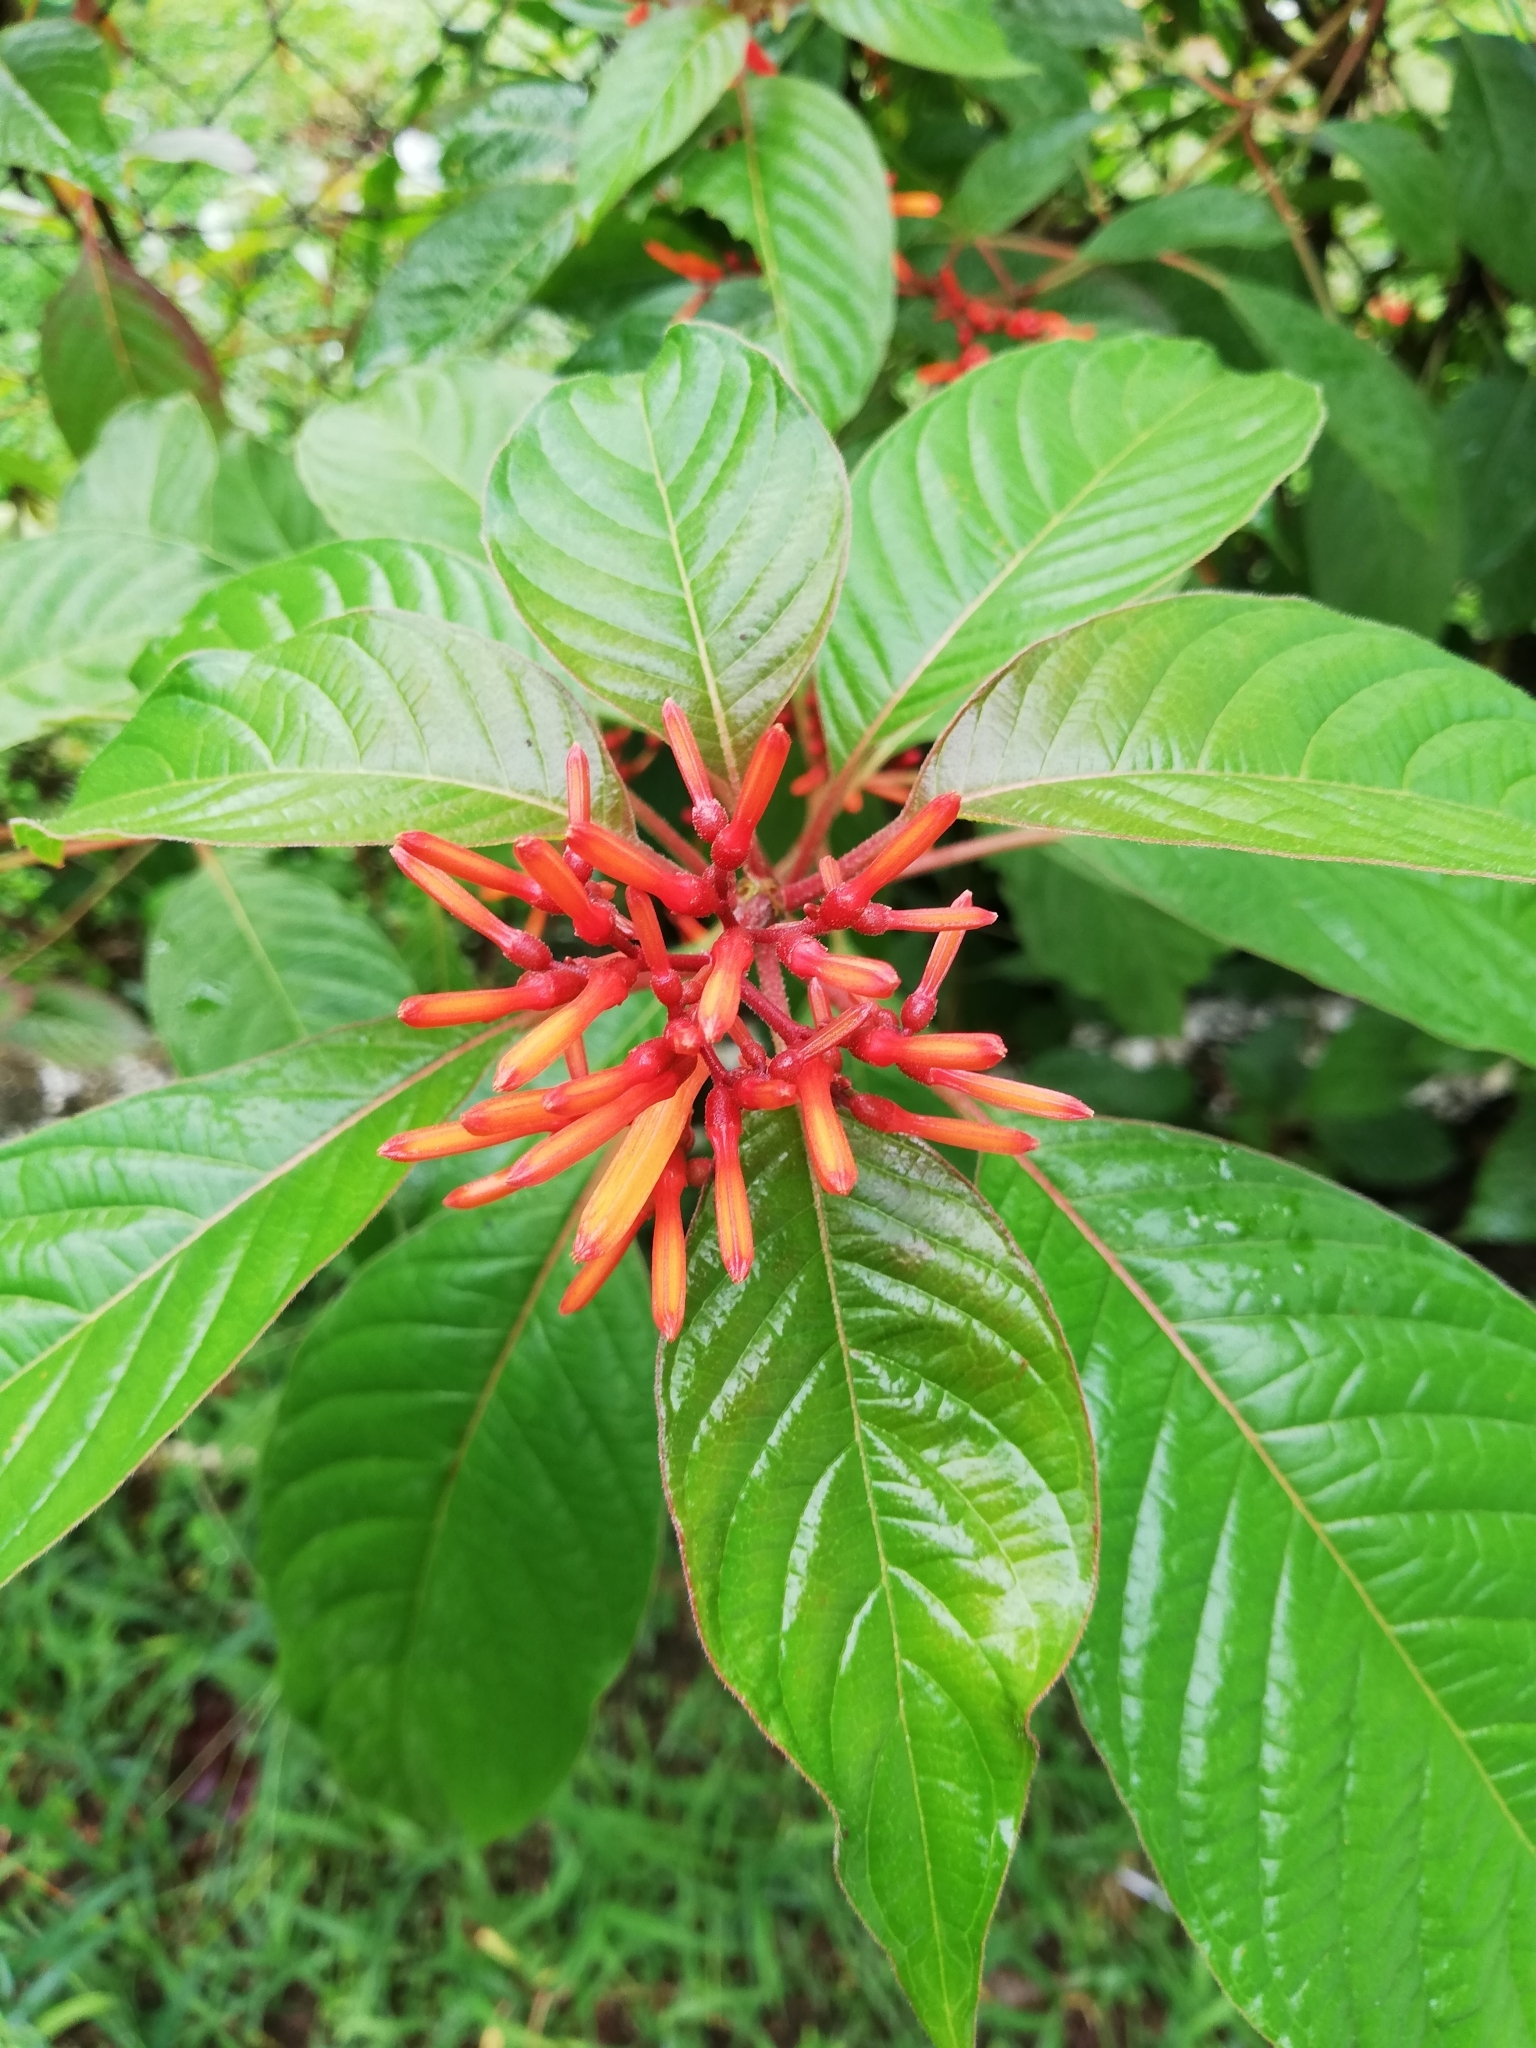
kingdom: Plantae
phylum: Tracheophyta
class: Magnoliopsida
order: Gentianales
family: Rubiaceae
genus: Hamelia
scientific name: Hamelia patens
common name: Redhead
